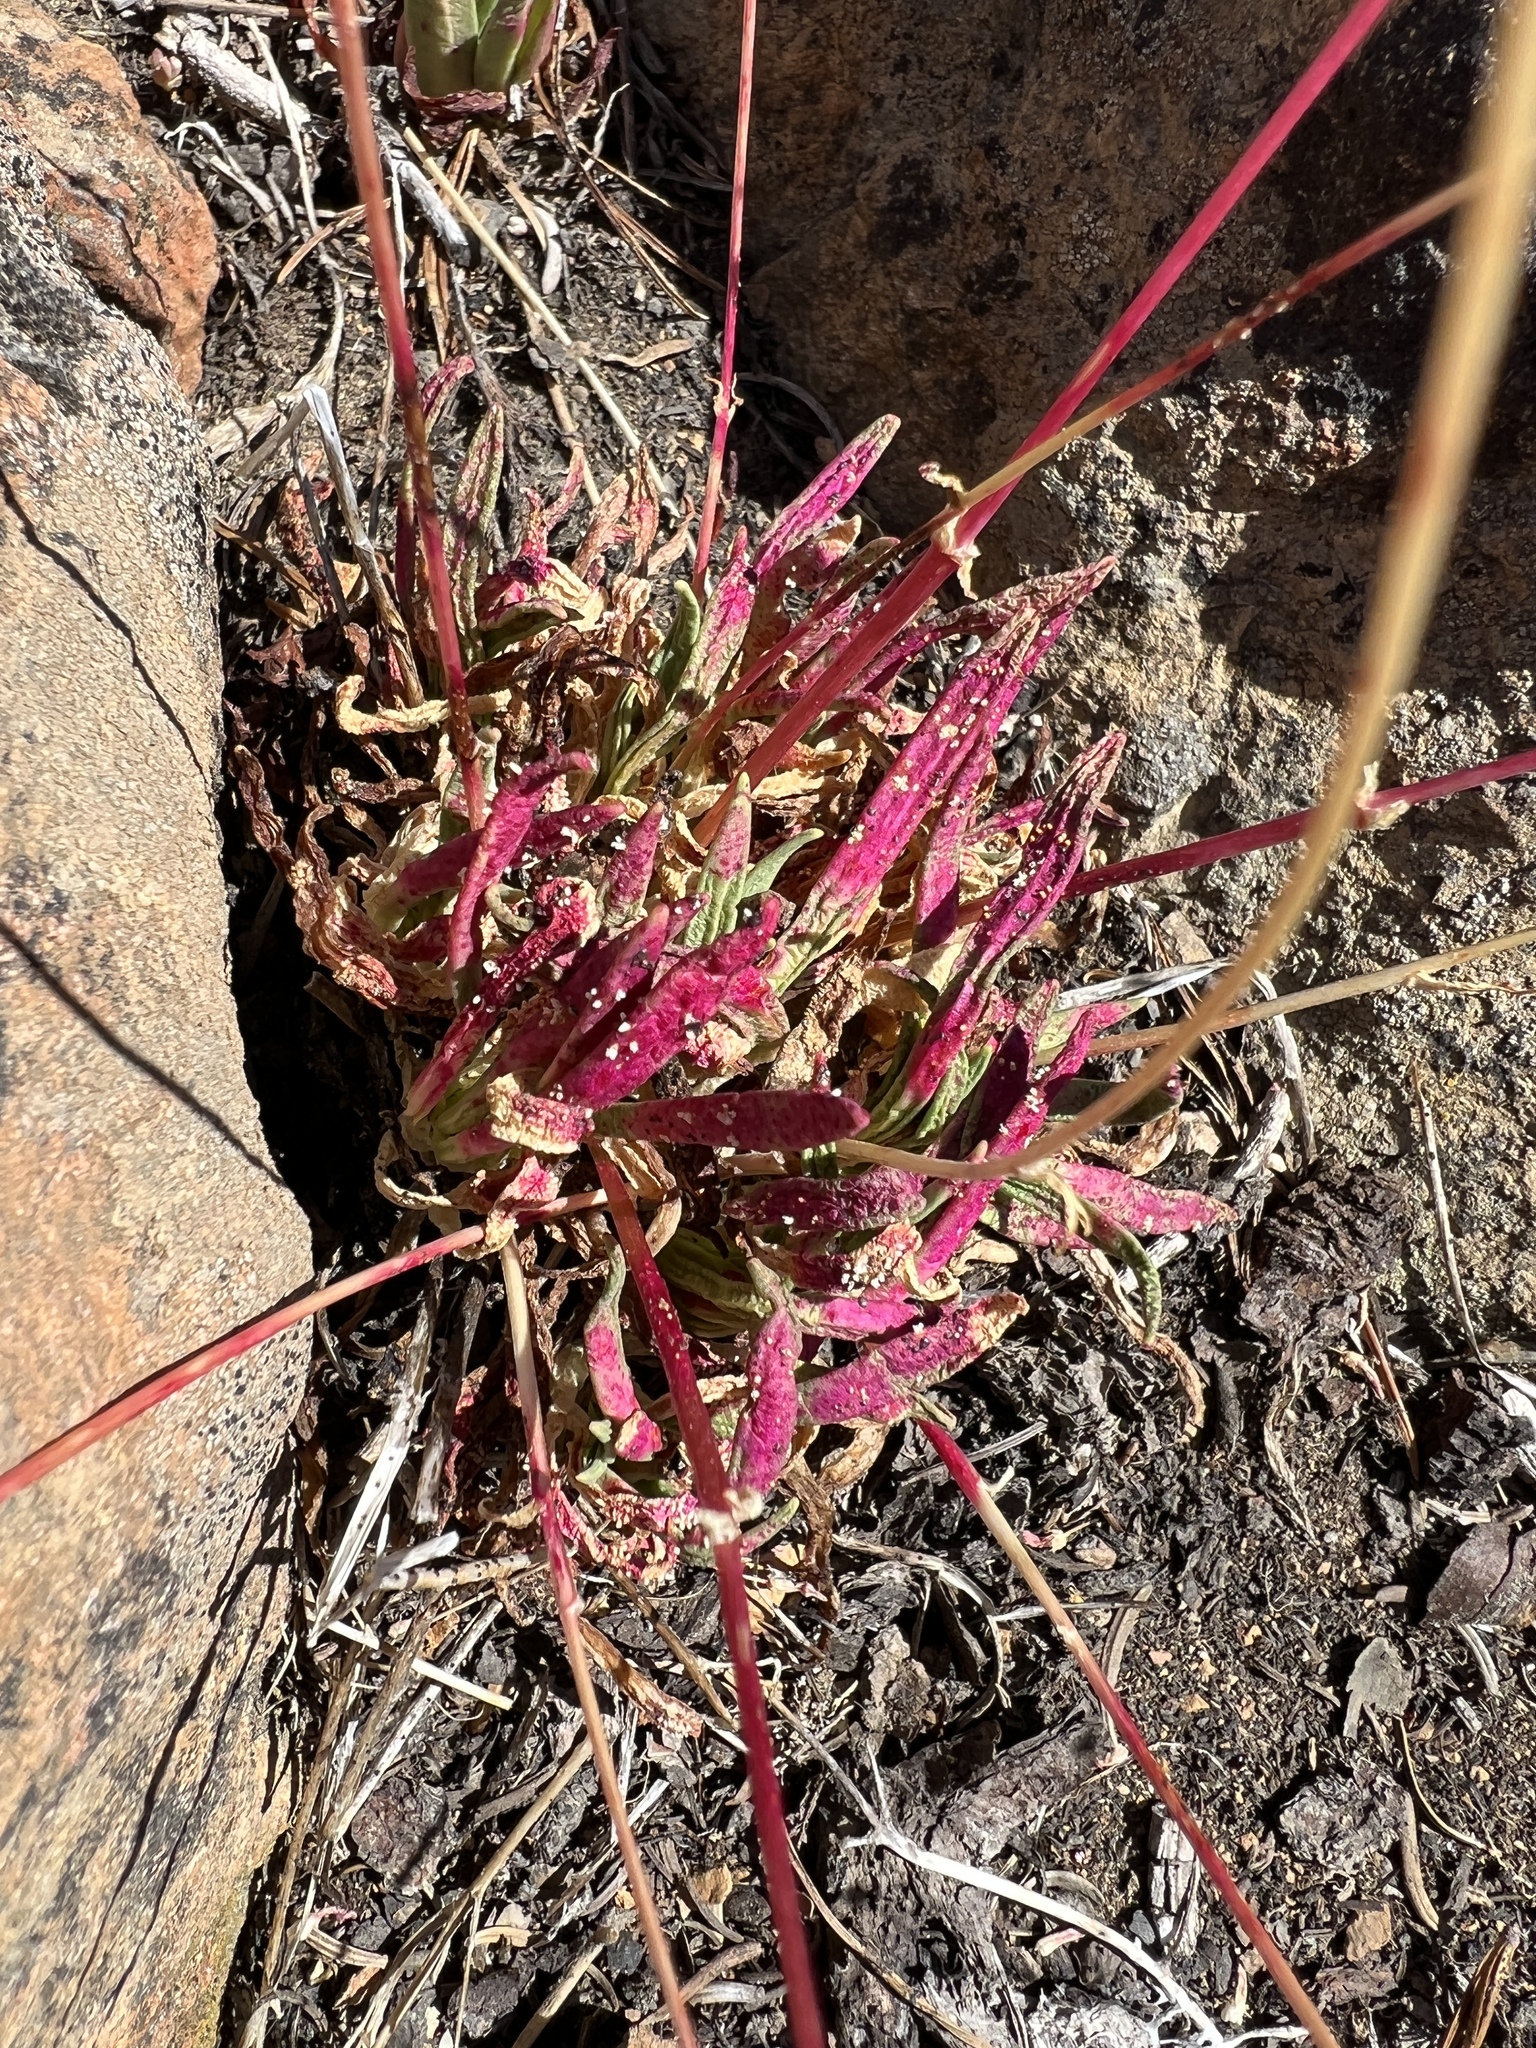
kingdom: Plantae
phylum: Tracheophyta
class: Magnoliopsida
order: Caryophyllales
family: Montiaceae
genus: Lewisia
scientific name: Lewisia columbiana
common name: Columbia lewisia
